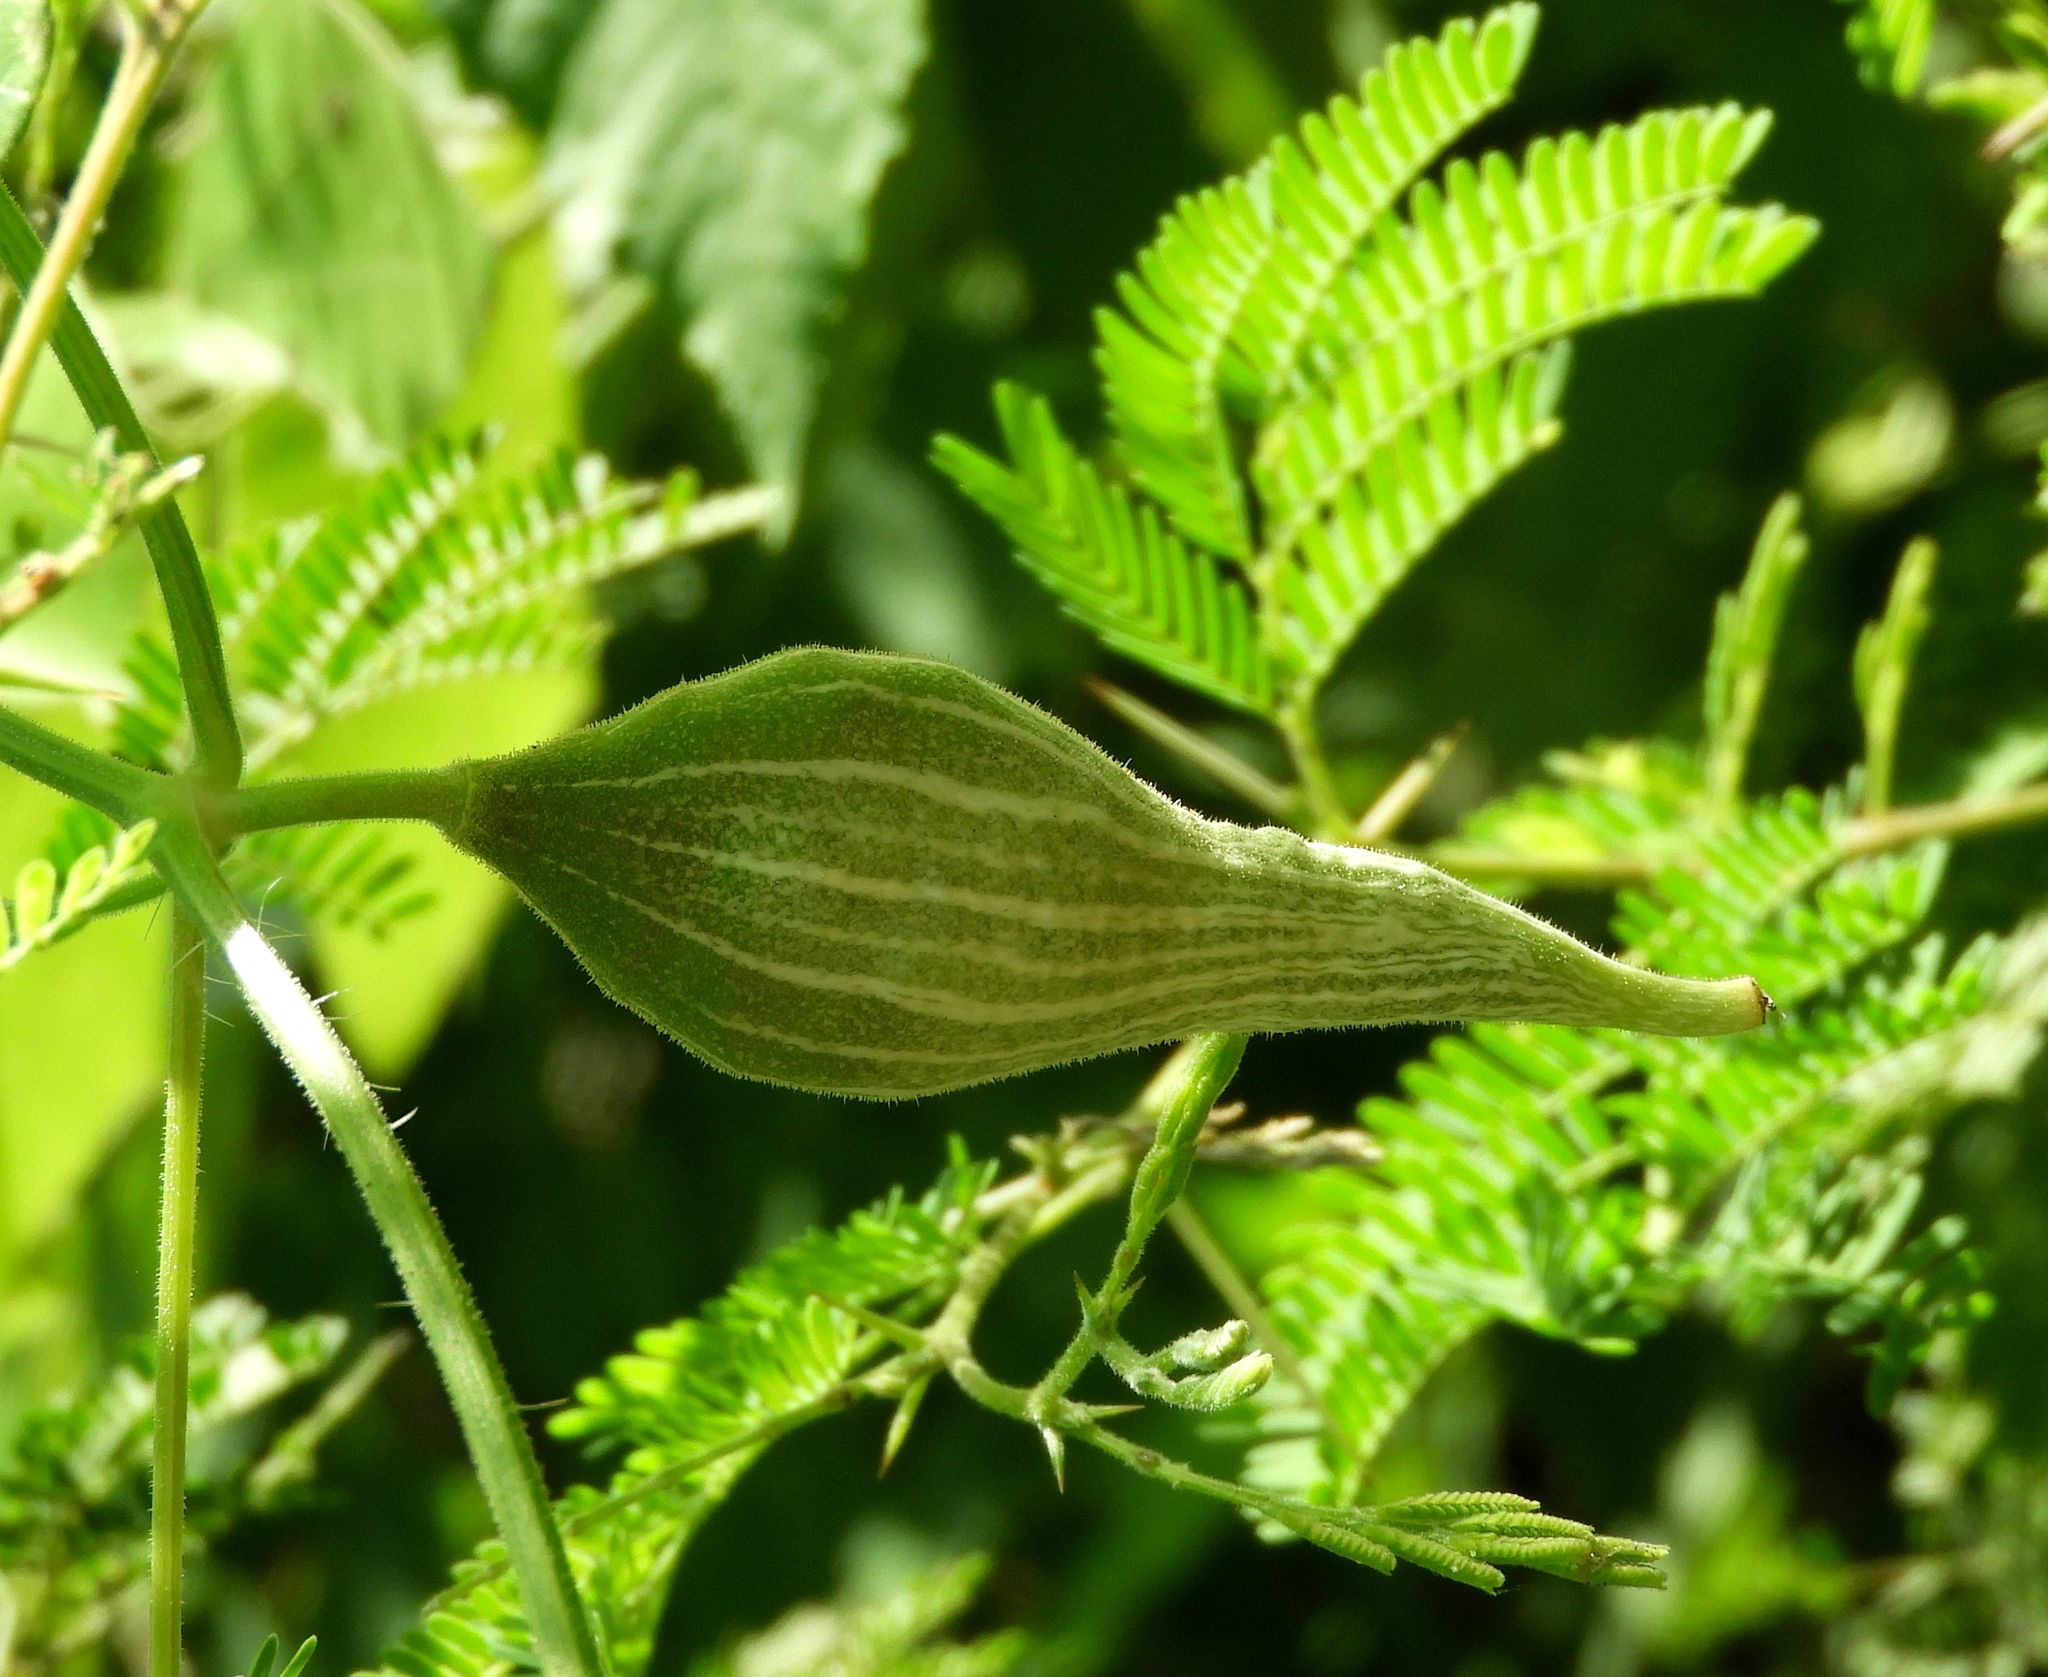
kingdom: Plantae
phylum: Tracheophyta
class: Magnoliopsida
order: Cucurbitales
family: Cucurbitaceae
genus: Schizocarpum
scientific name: Schizocarpum parviflorum
